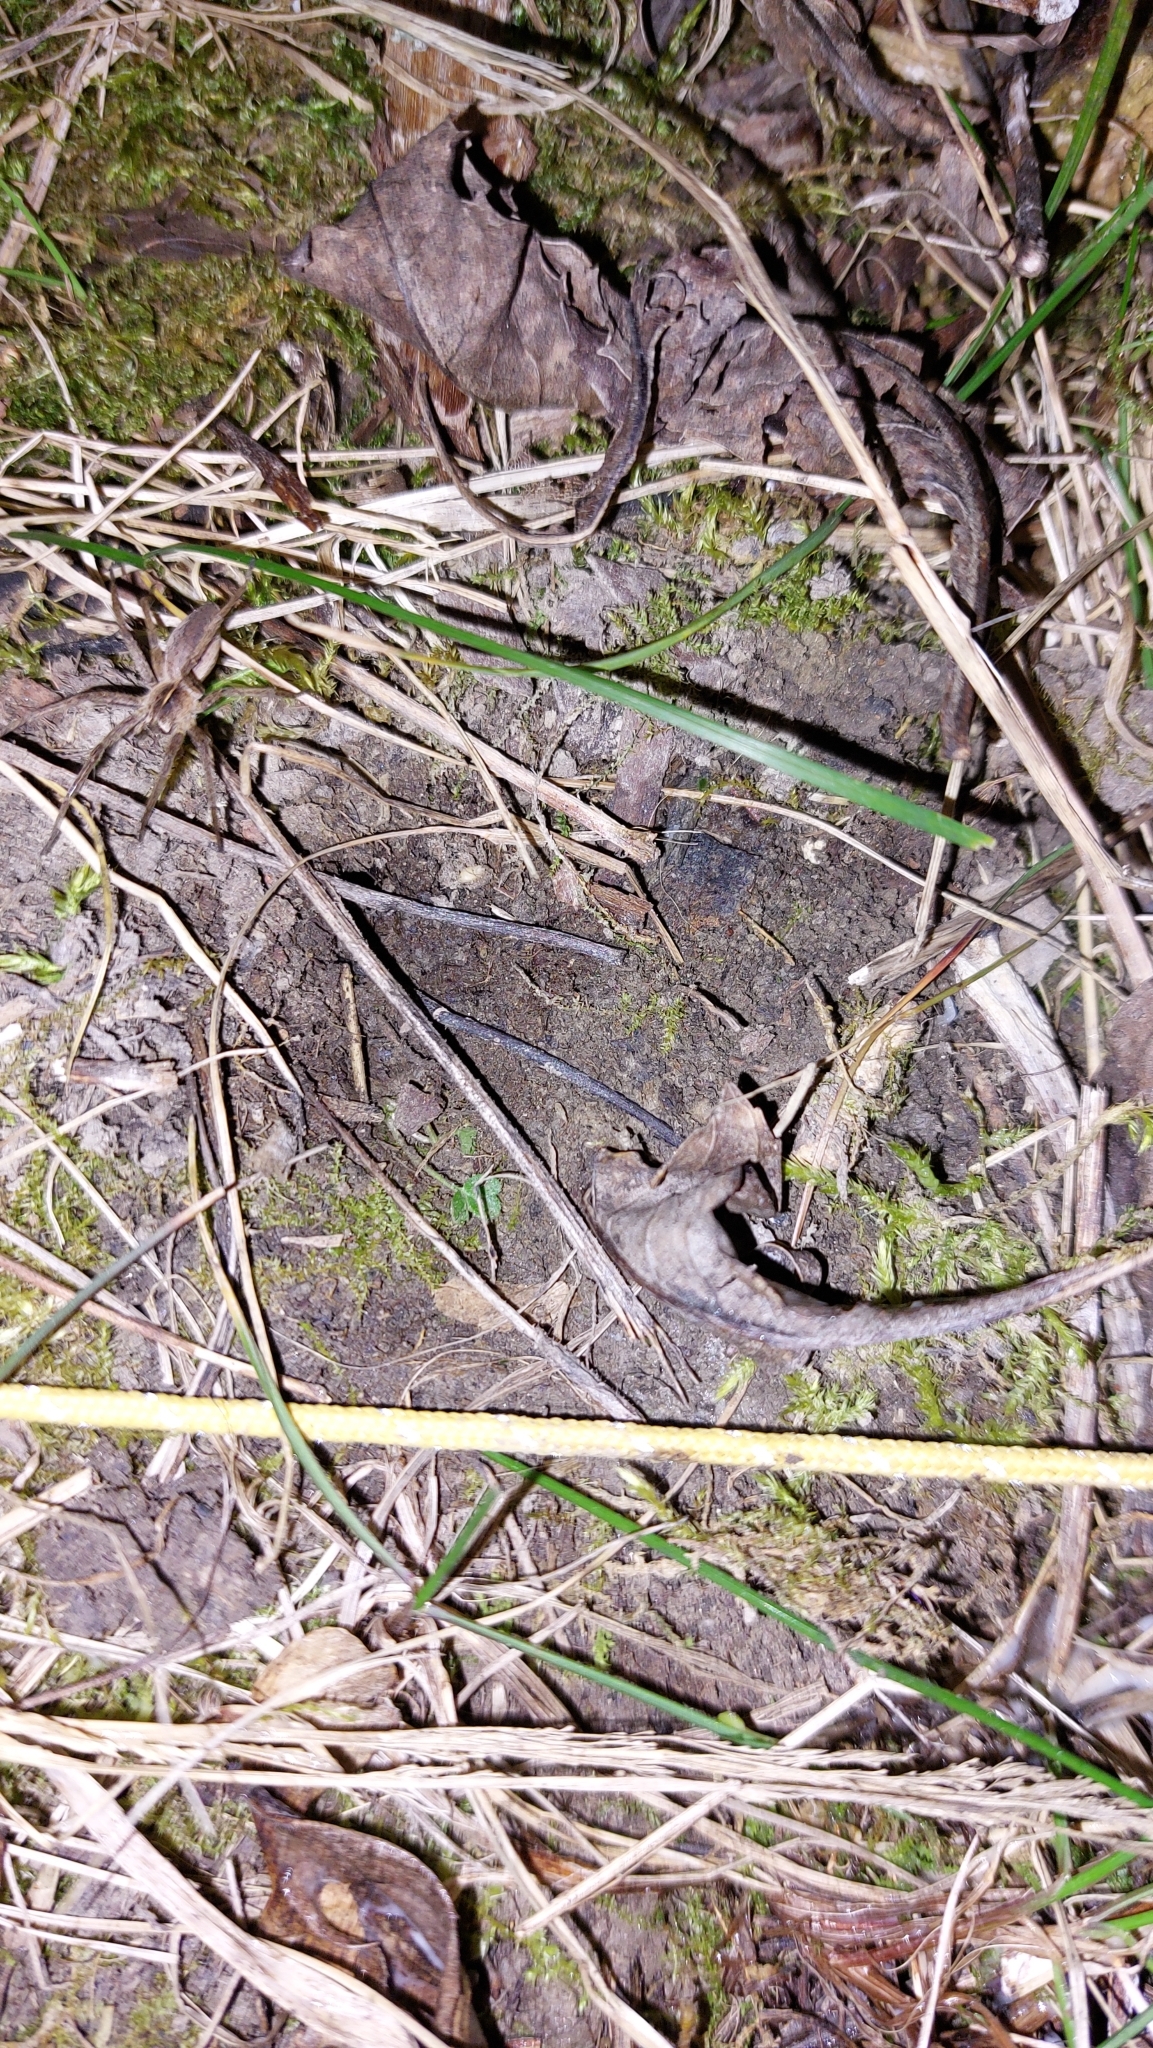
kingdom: Animalia
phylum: Arthropoda
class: Arachnida
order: Araneae
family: Pisauridae
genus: Pisaura
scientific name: Pisaura mirabilis
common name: Tent spider
